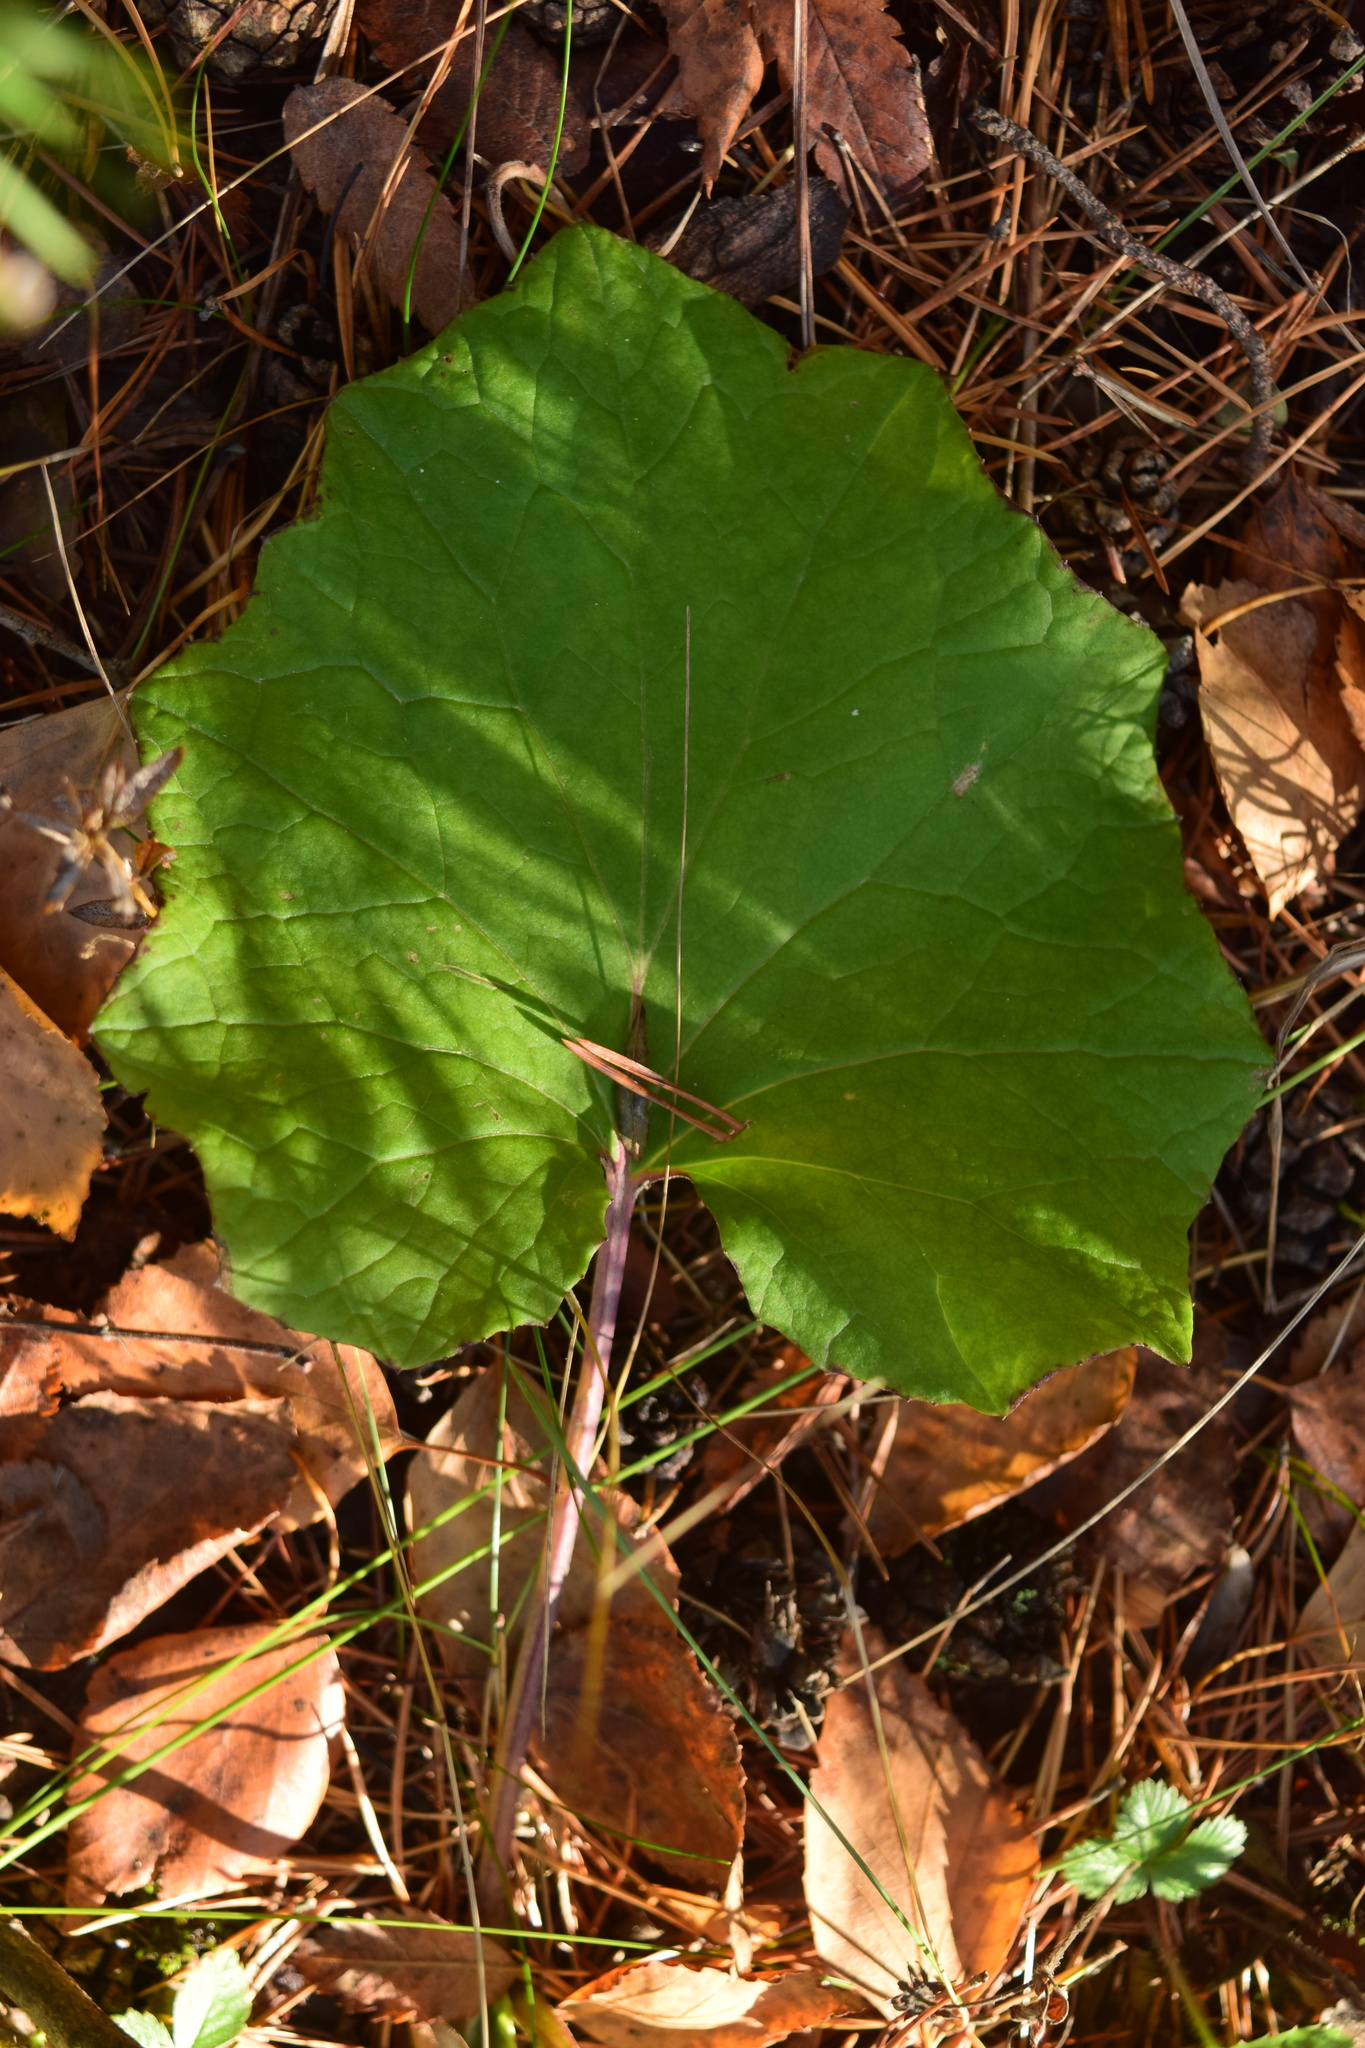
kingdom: Plantae
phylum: Tracheophyta
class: Magnoliopsida
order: Asterales
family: Asteraceae
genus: Tussilago
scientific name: Tussilago farfara
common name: Coltsfoot
